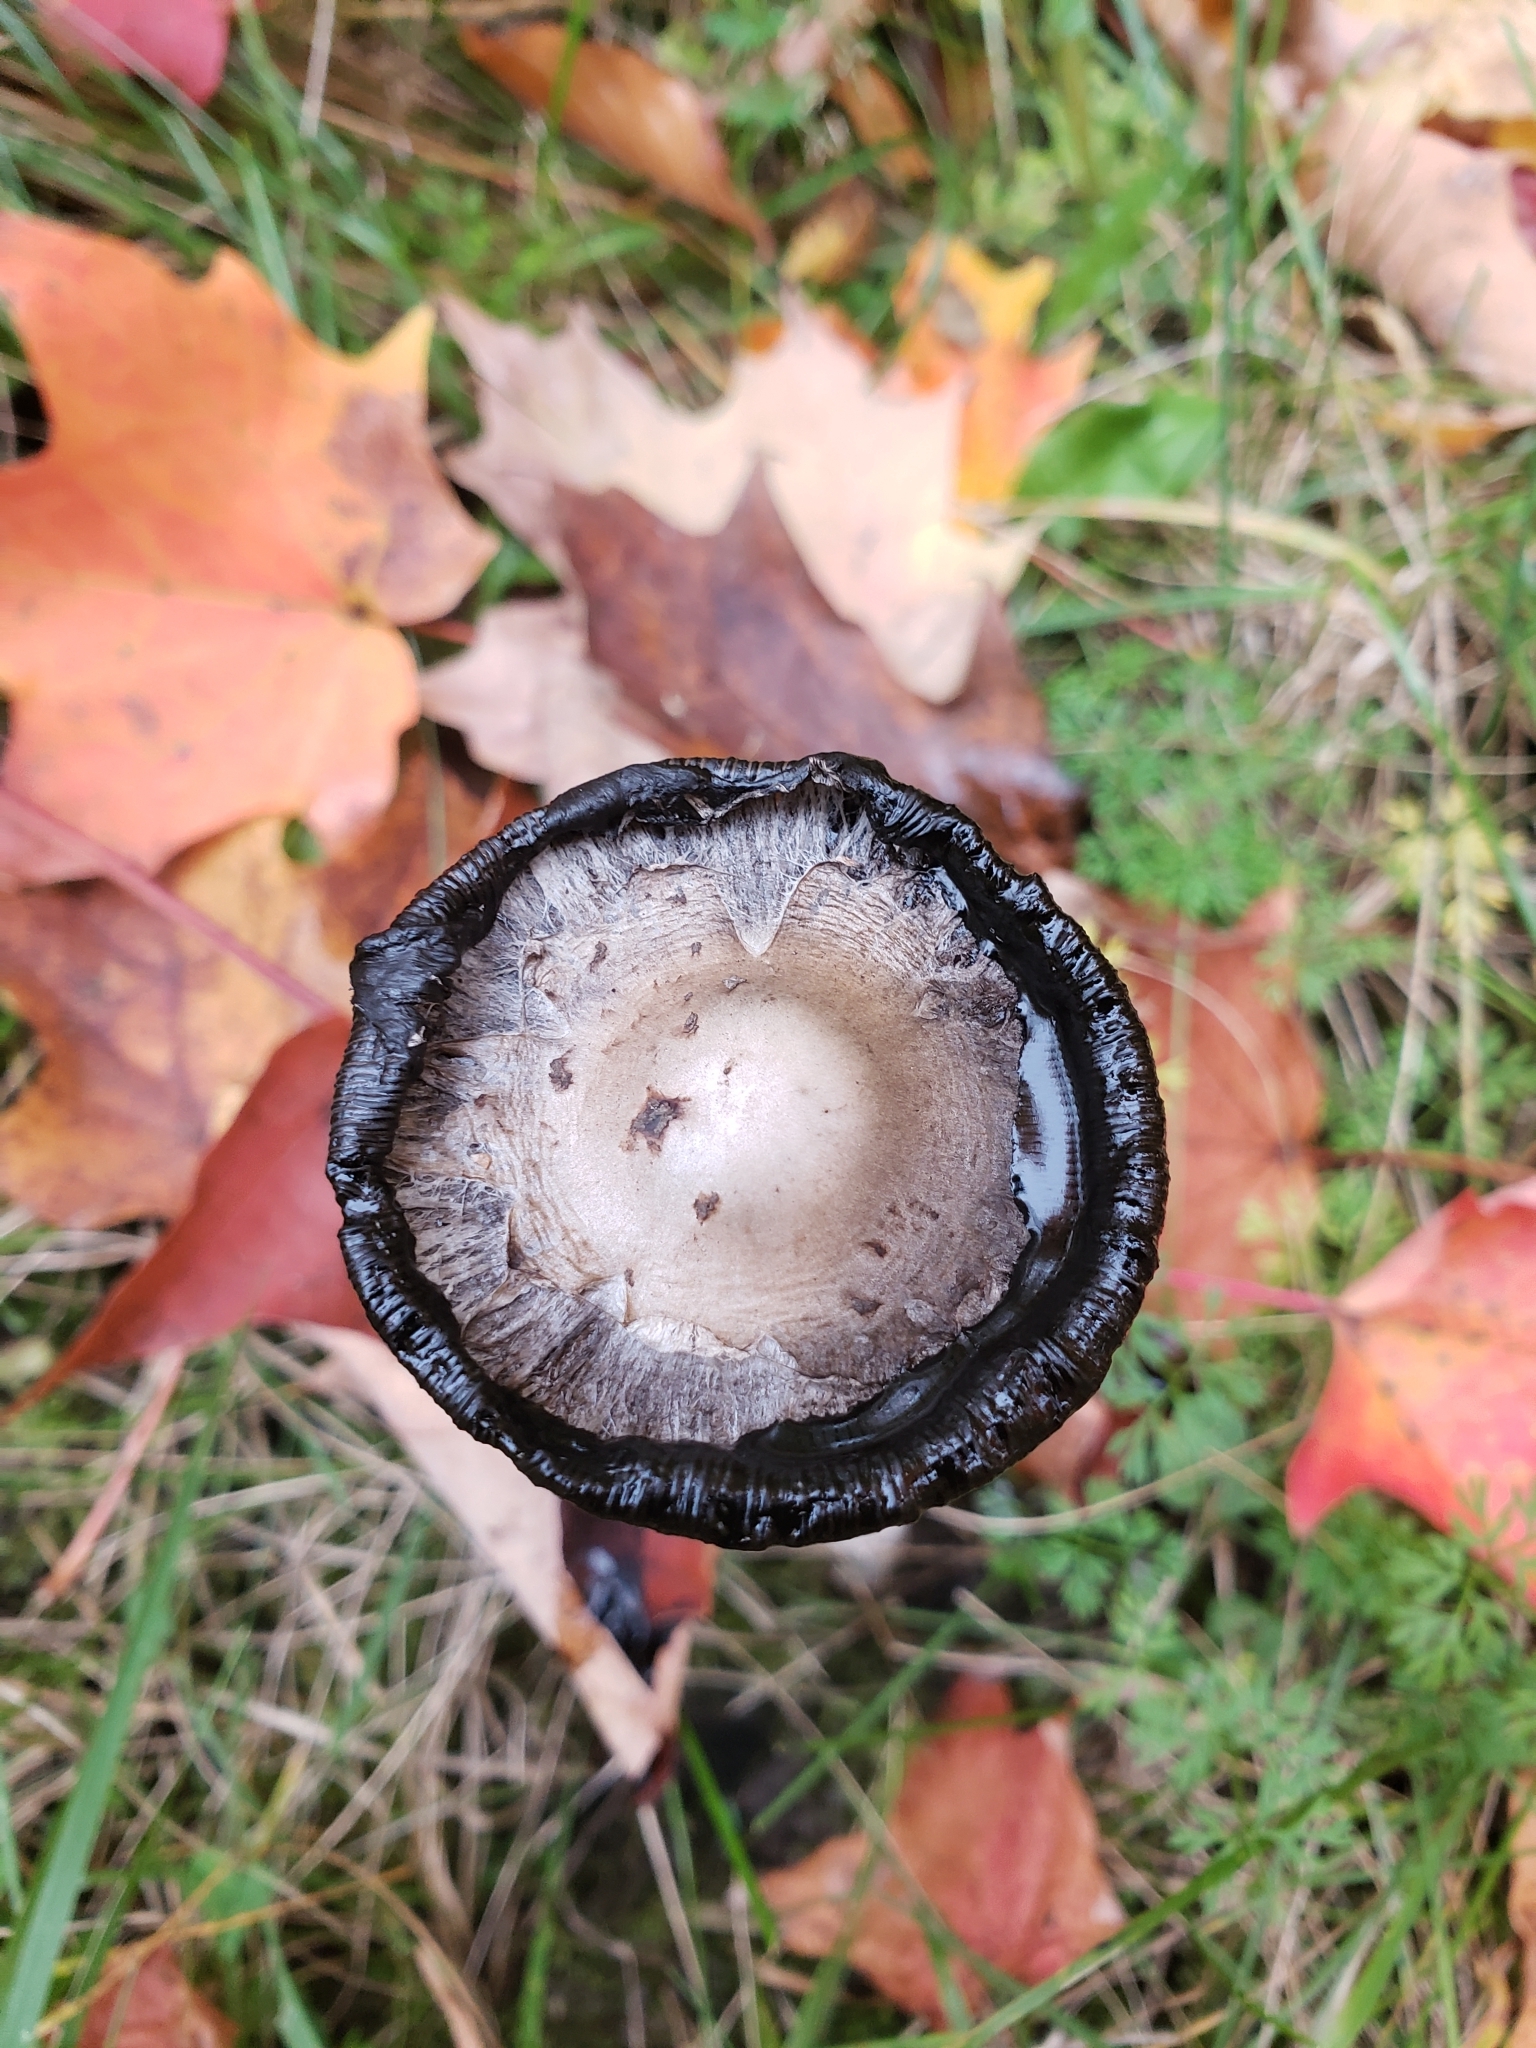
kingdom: Fungi
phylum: Basidiomycota
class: Agaricomycetes
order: Agaricales
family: Agaricaceae
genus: Coprinus
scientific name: Coprinus comatus
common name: Lawyer's wig
